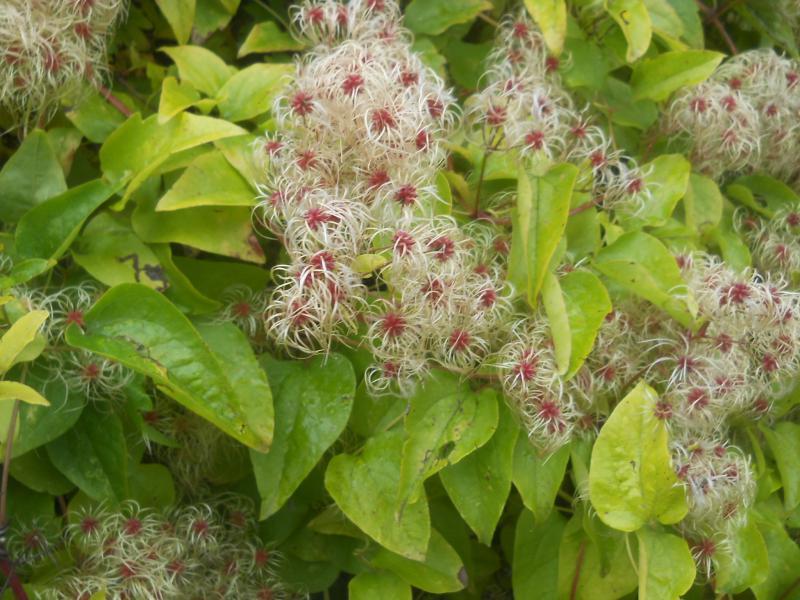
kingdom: Plantae
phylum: Tracheophyta
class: Magnoliopsida
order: Ranunculales
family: Ranunculaceae
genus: Clematis
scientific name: Clematis vitalba
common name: Evergreen clematis
